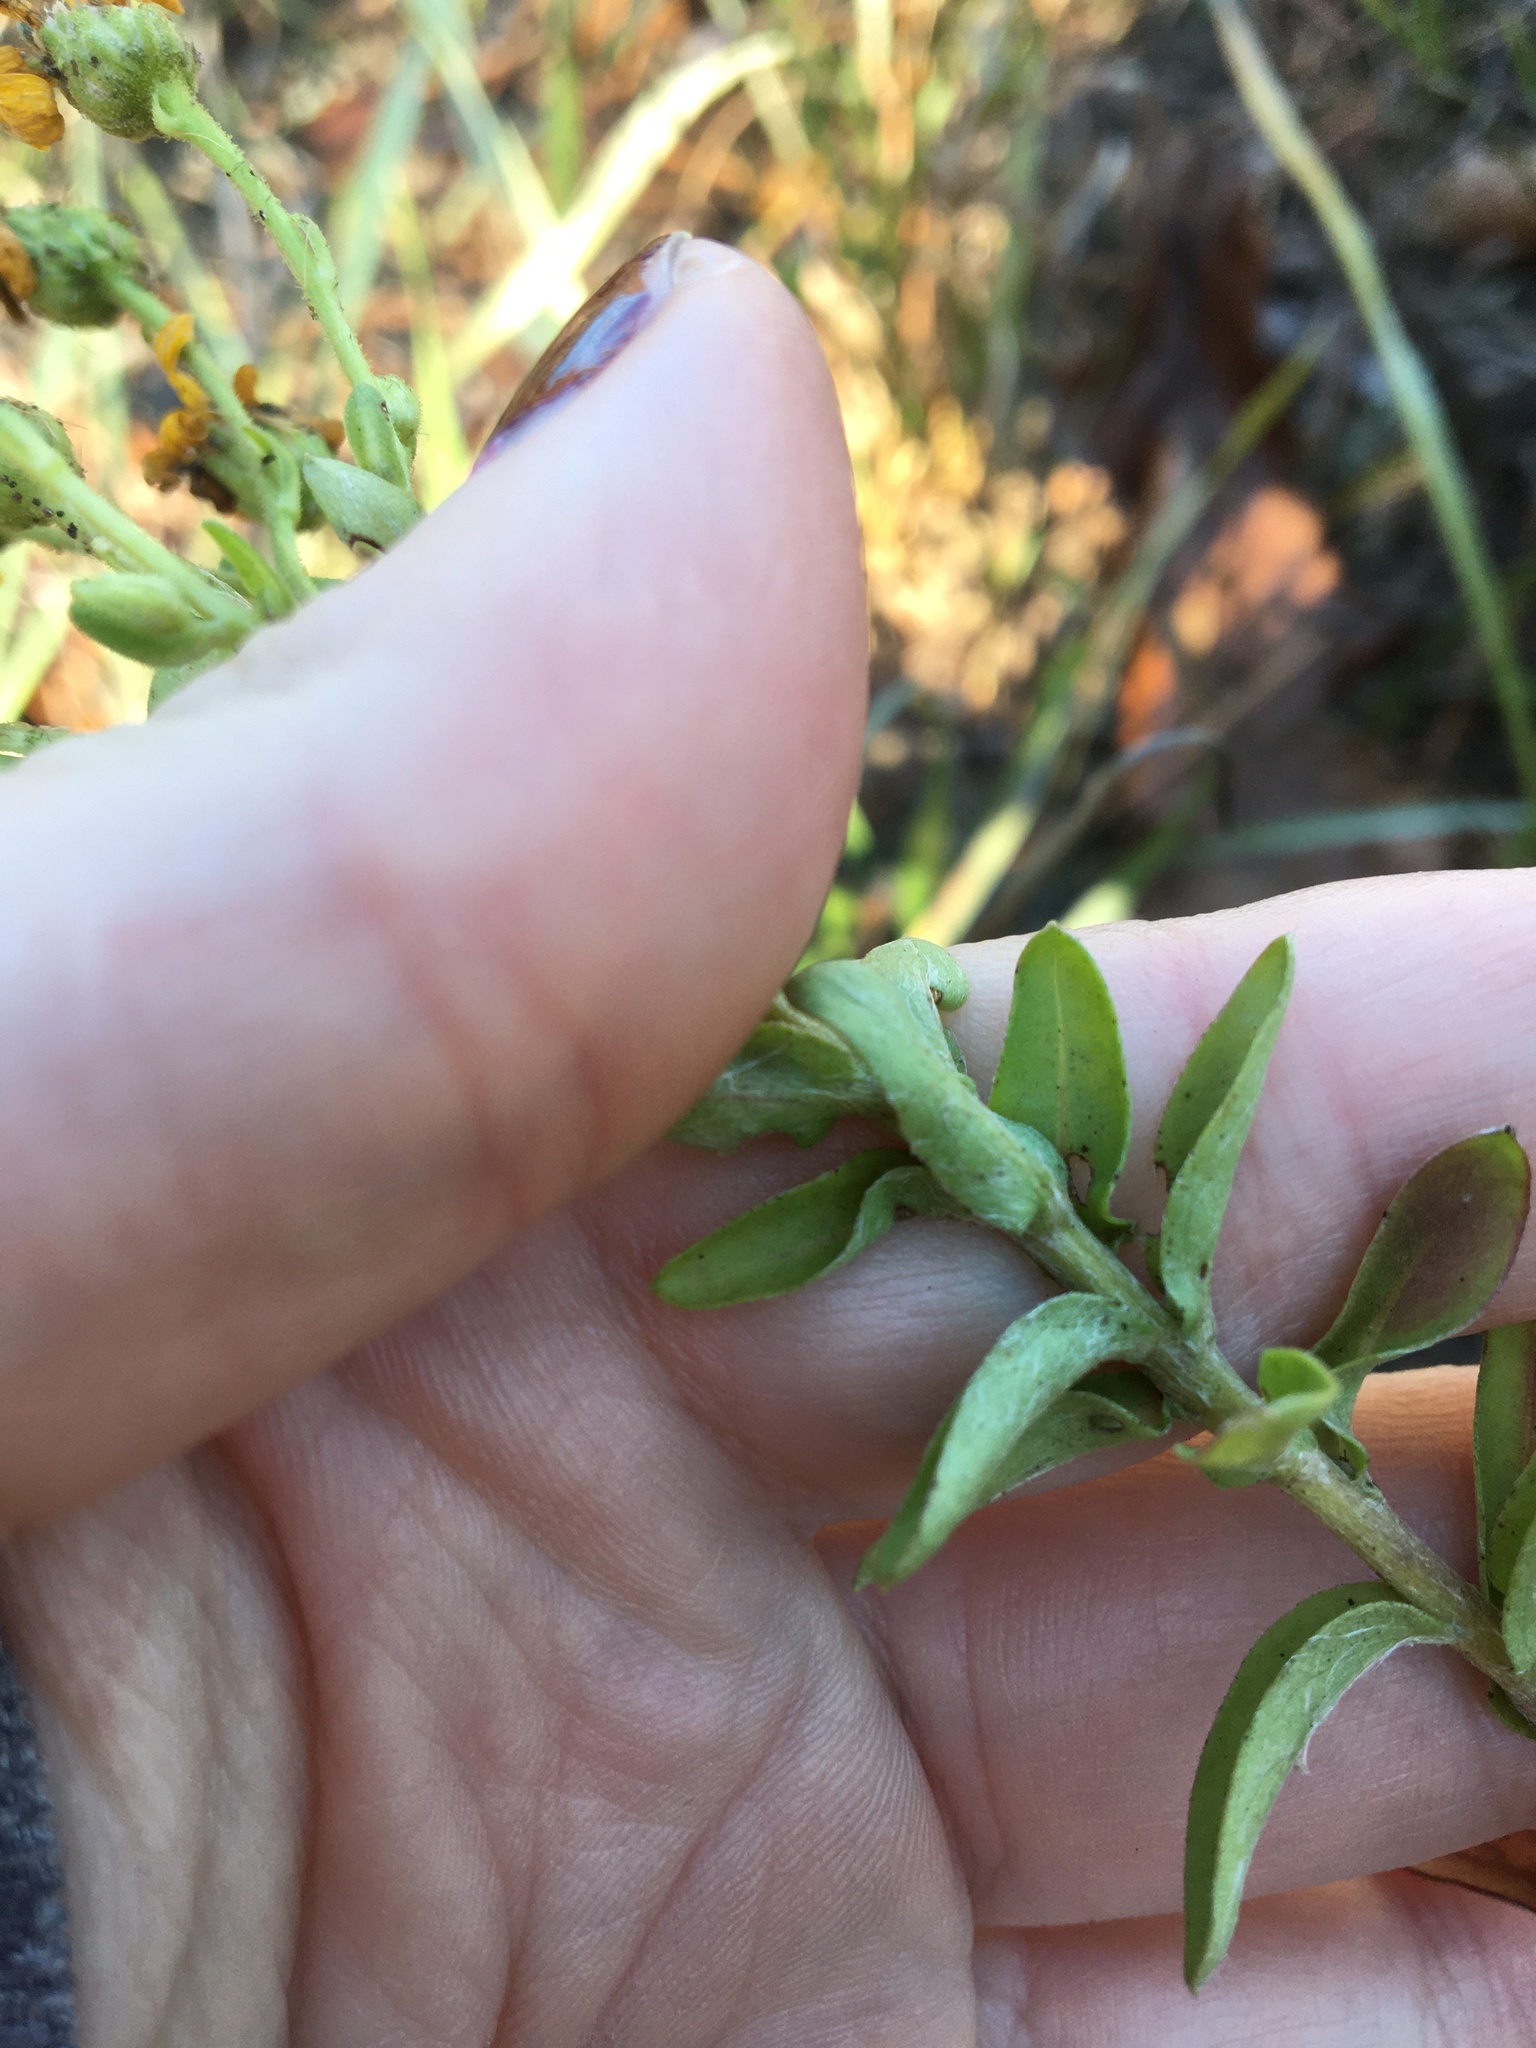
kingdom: Plantae
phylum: Tracheophyta
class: Magnoliopsida
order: Asterales
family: Asteraceae
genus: Chrysopsis
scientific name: Chrysopsis mariana
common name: Maryland golden-aster
